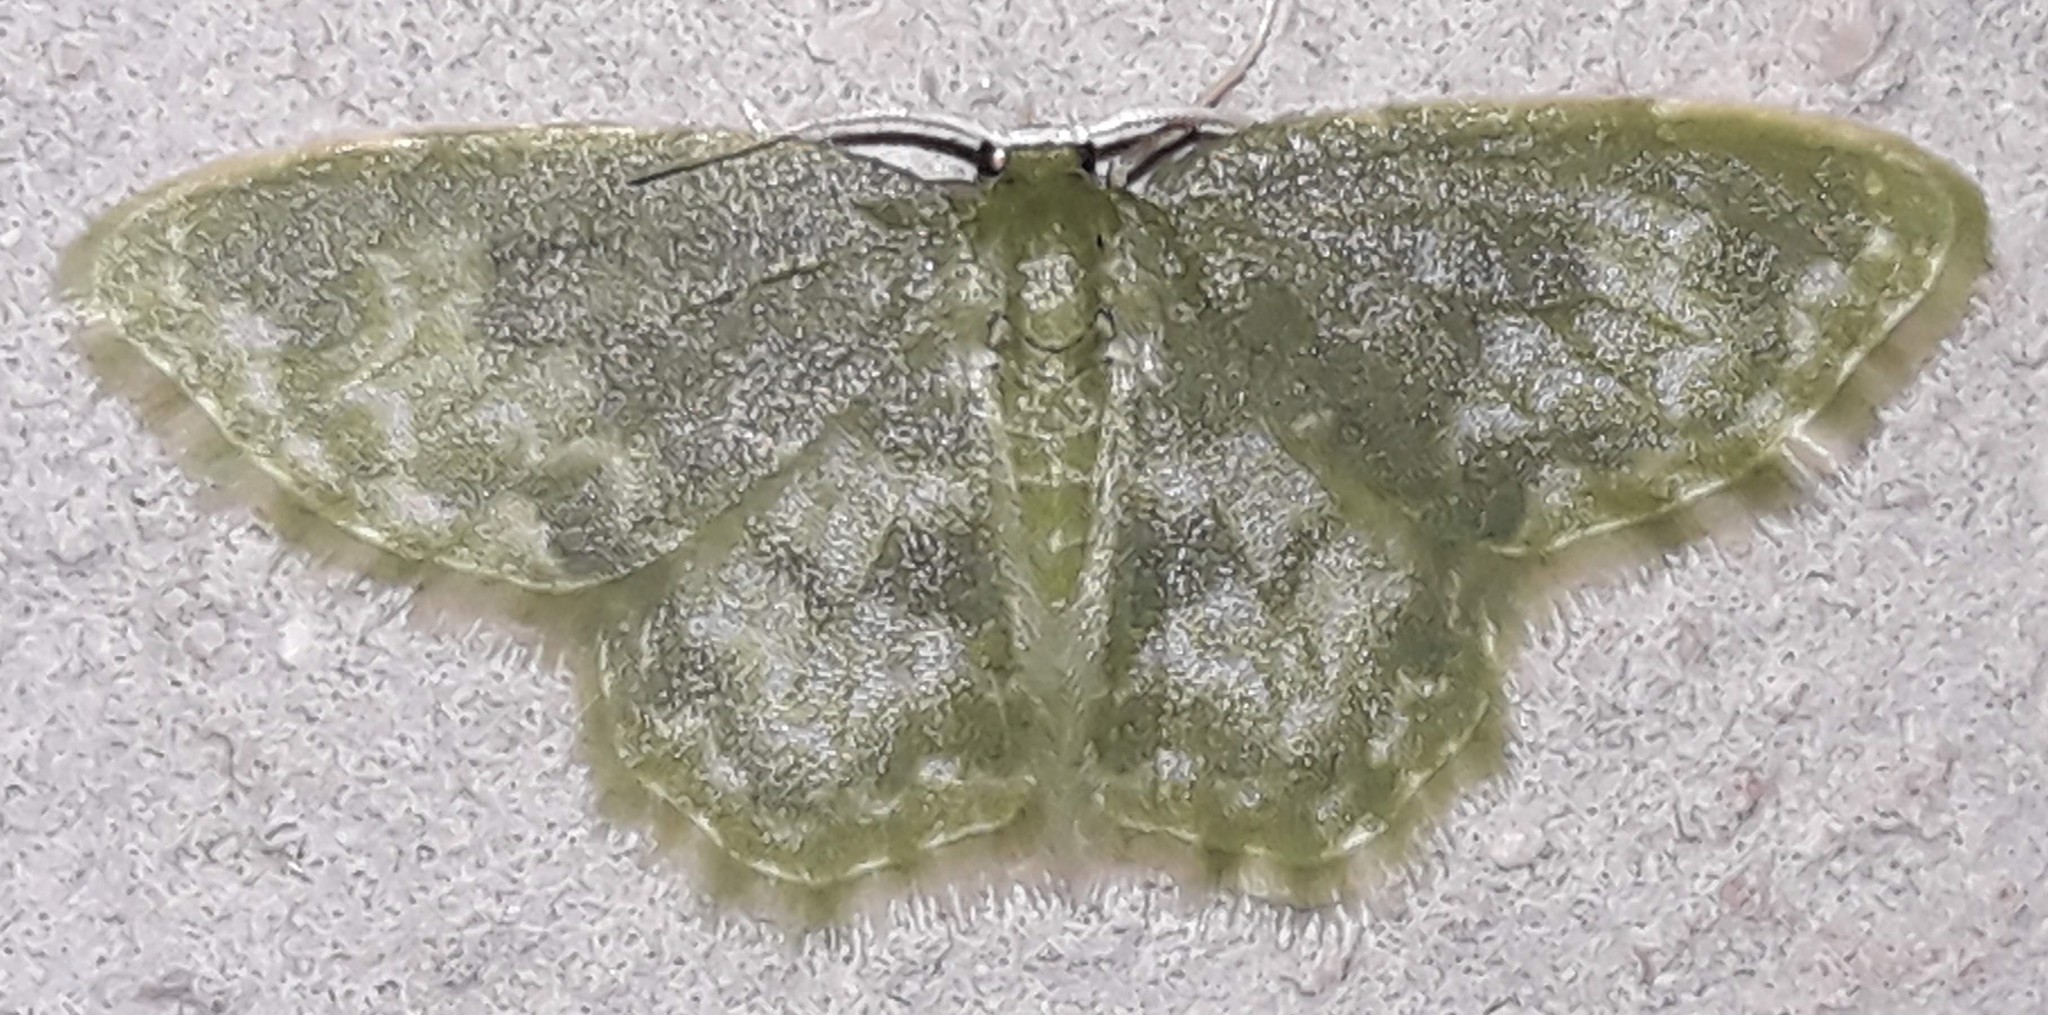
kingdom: Animalia
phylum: Arthropoda
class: Insecta
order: Lepidoptera
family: Geometridae
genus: Pachycopsis
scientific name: Pachycopsis malina
